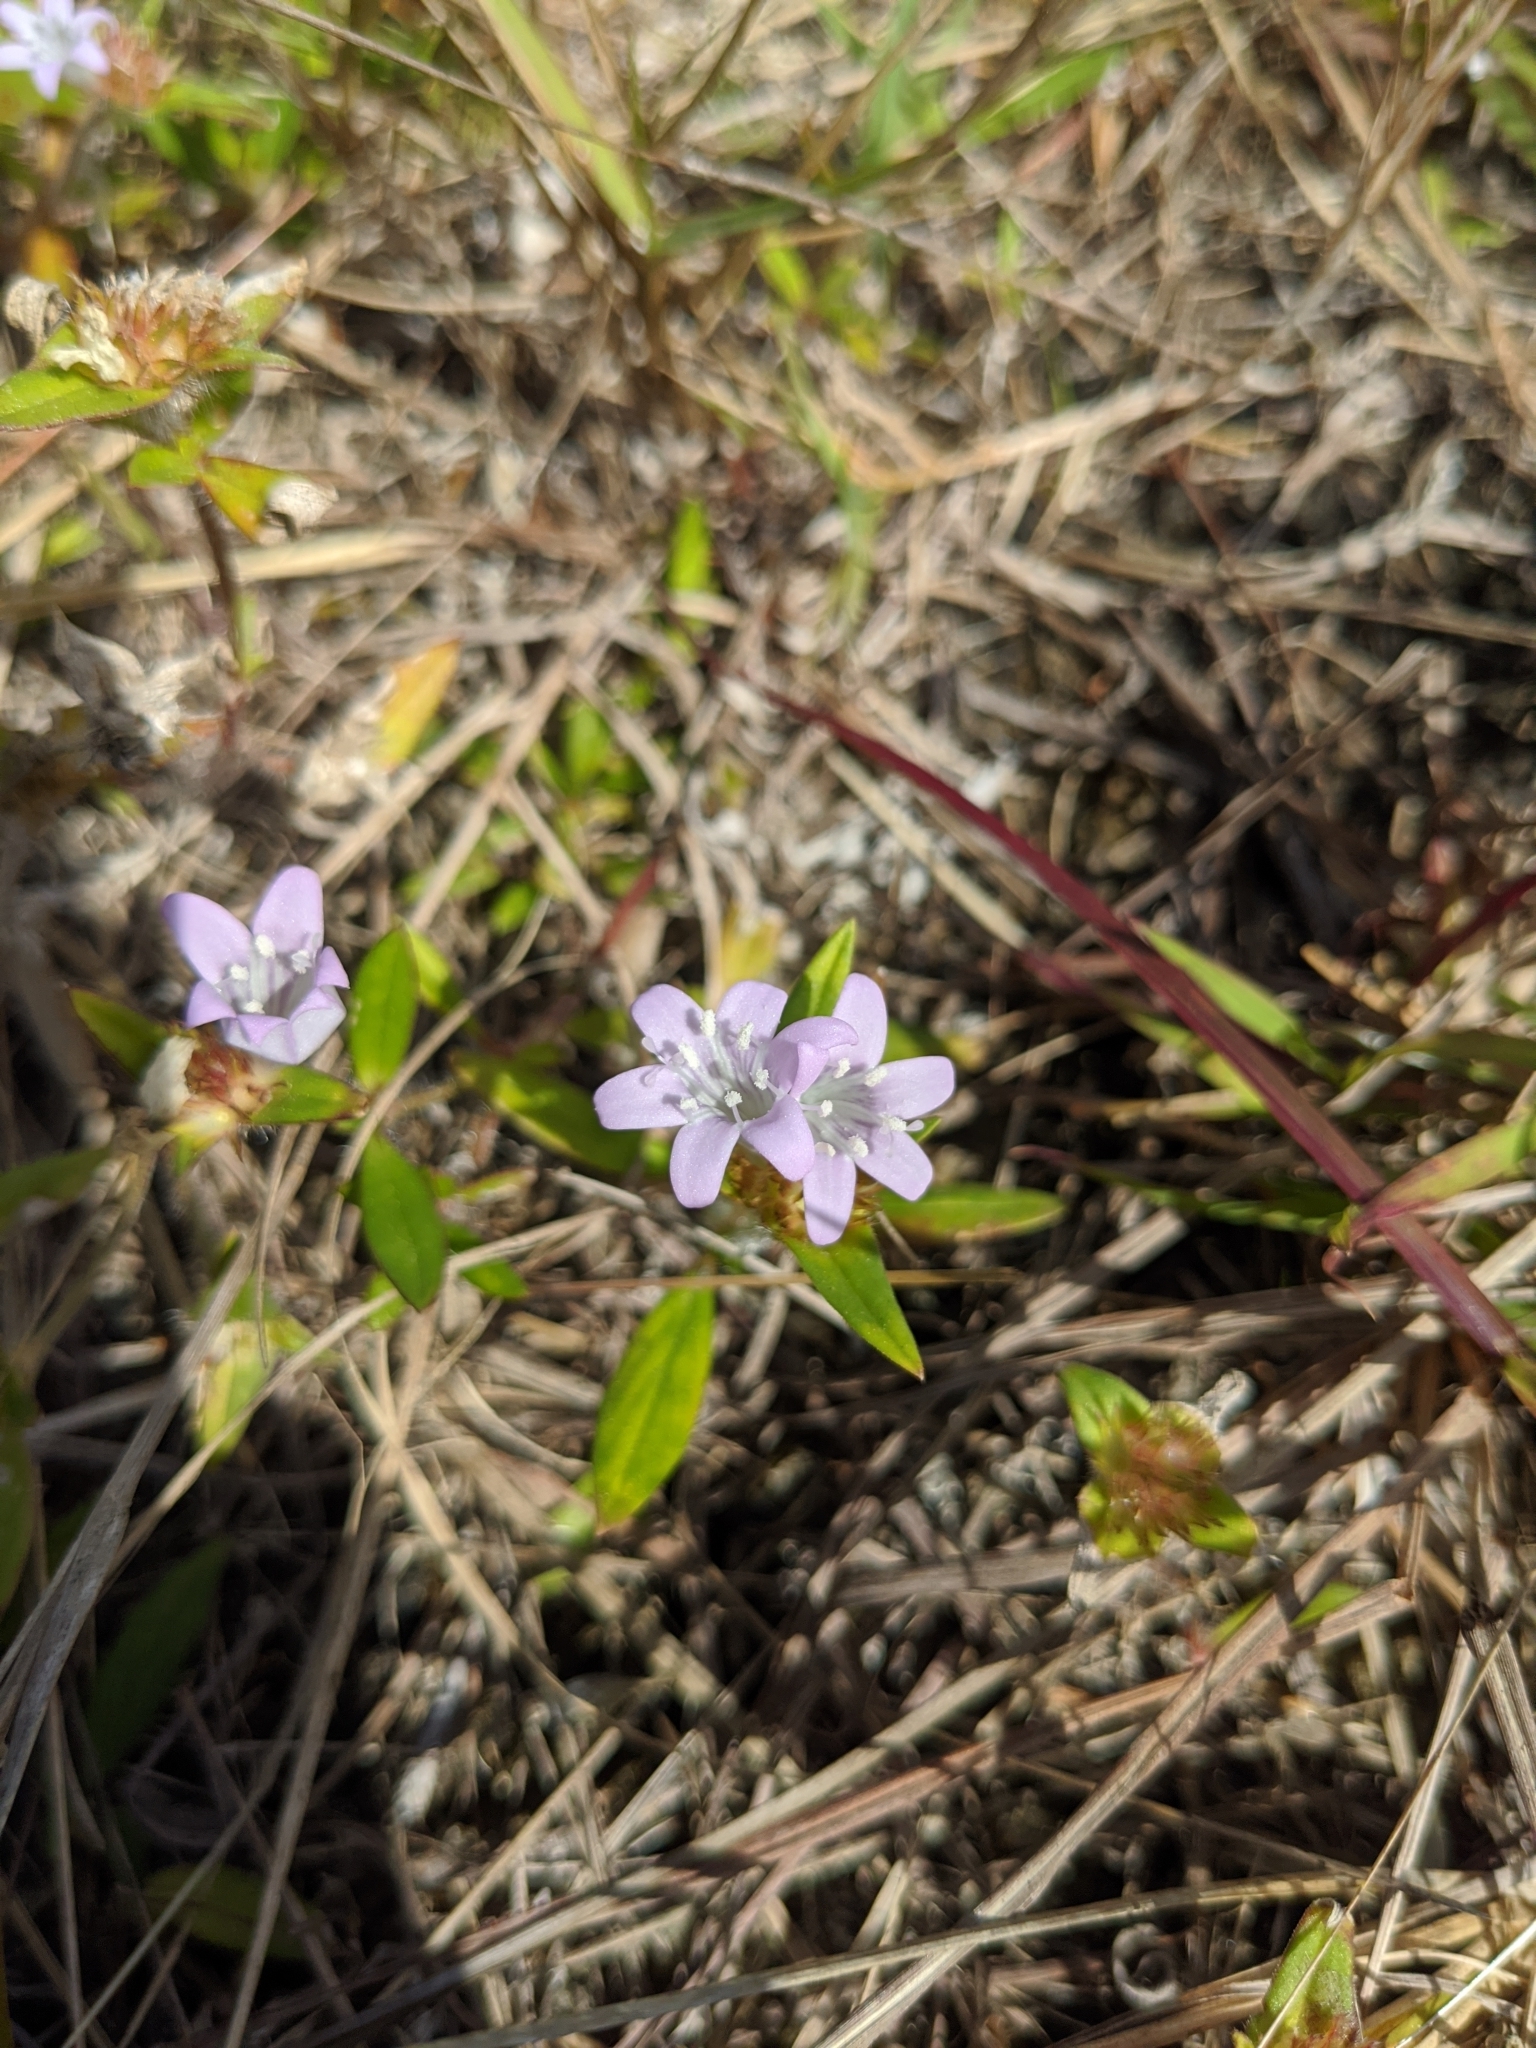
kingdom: Plantae
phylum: Tracheophyta
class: Magnoliopsida
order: Gentianales
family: Rubiaceae
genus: Richardia
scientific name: Richardia grandiflora
